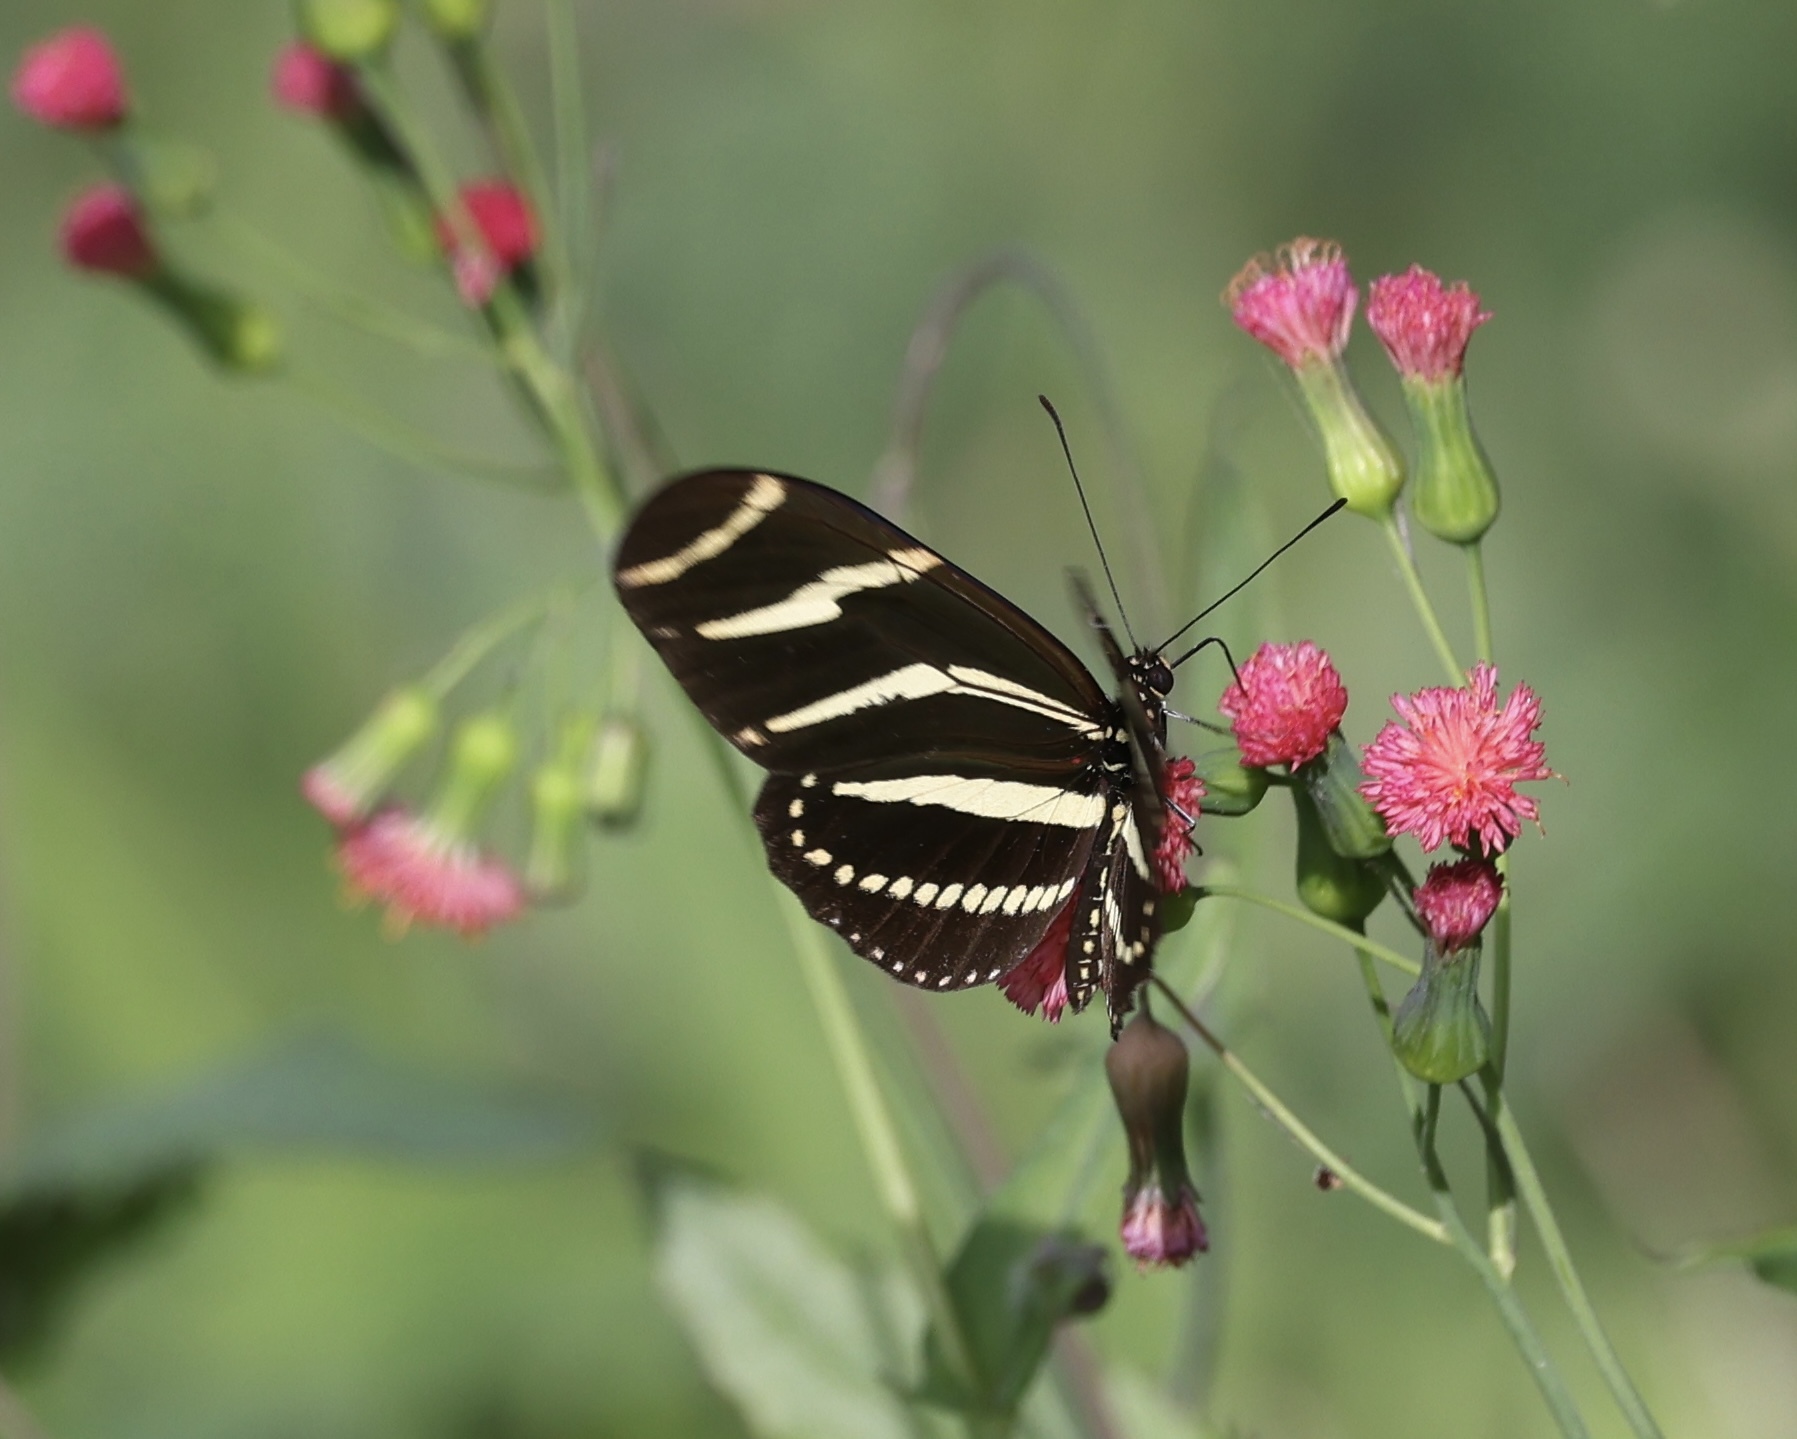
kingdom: Animalia
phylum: Arthropoda
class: Insecta
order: Lepidoptera
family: Nymphalidae
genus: Heliconius
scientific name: Heliconius charithonia
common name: Zebra long wing
